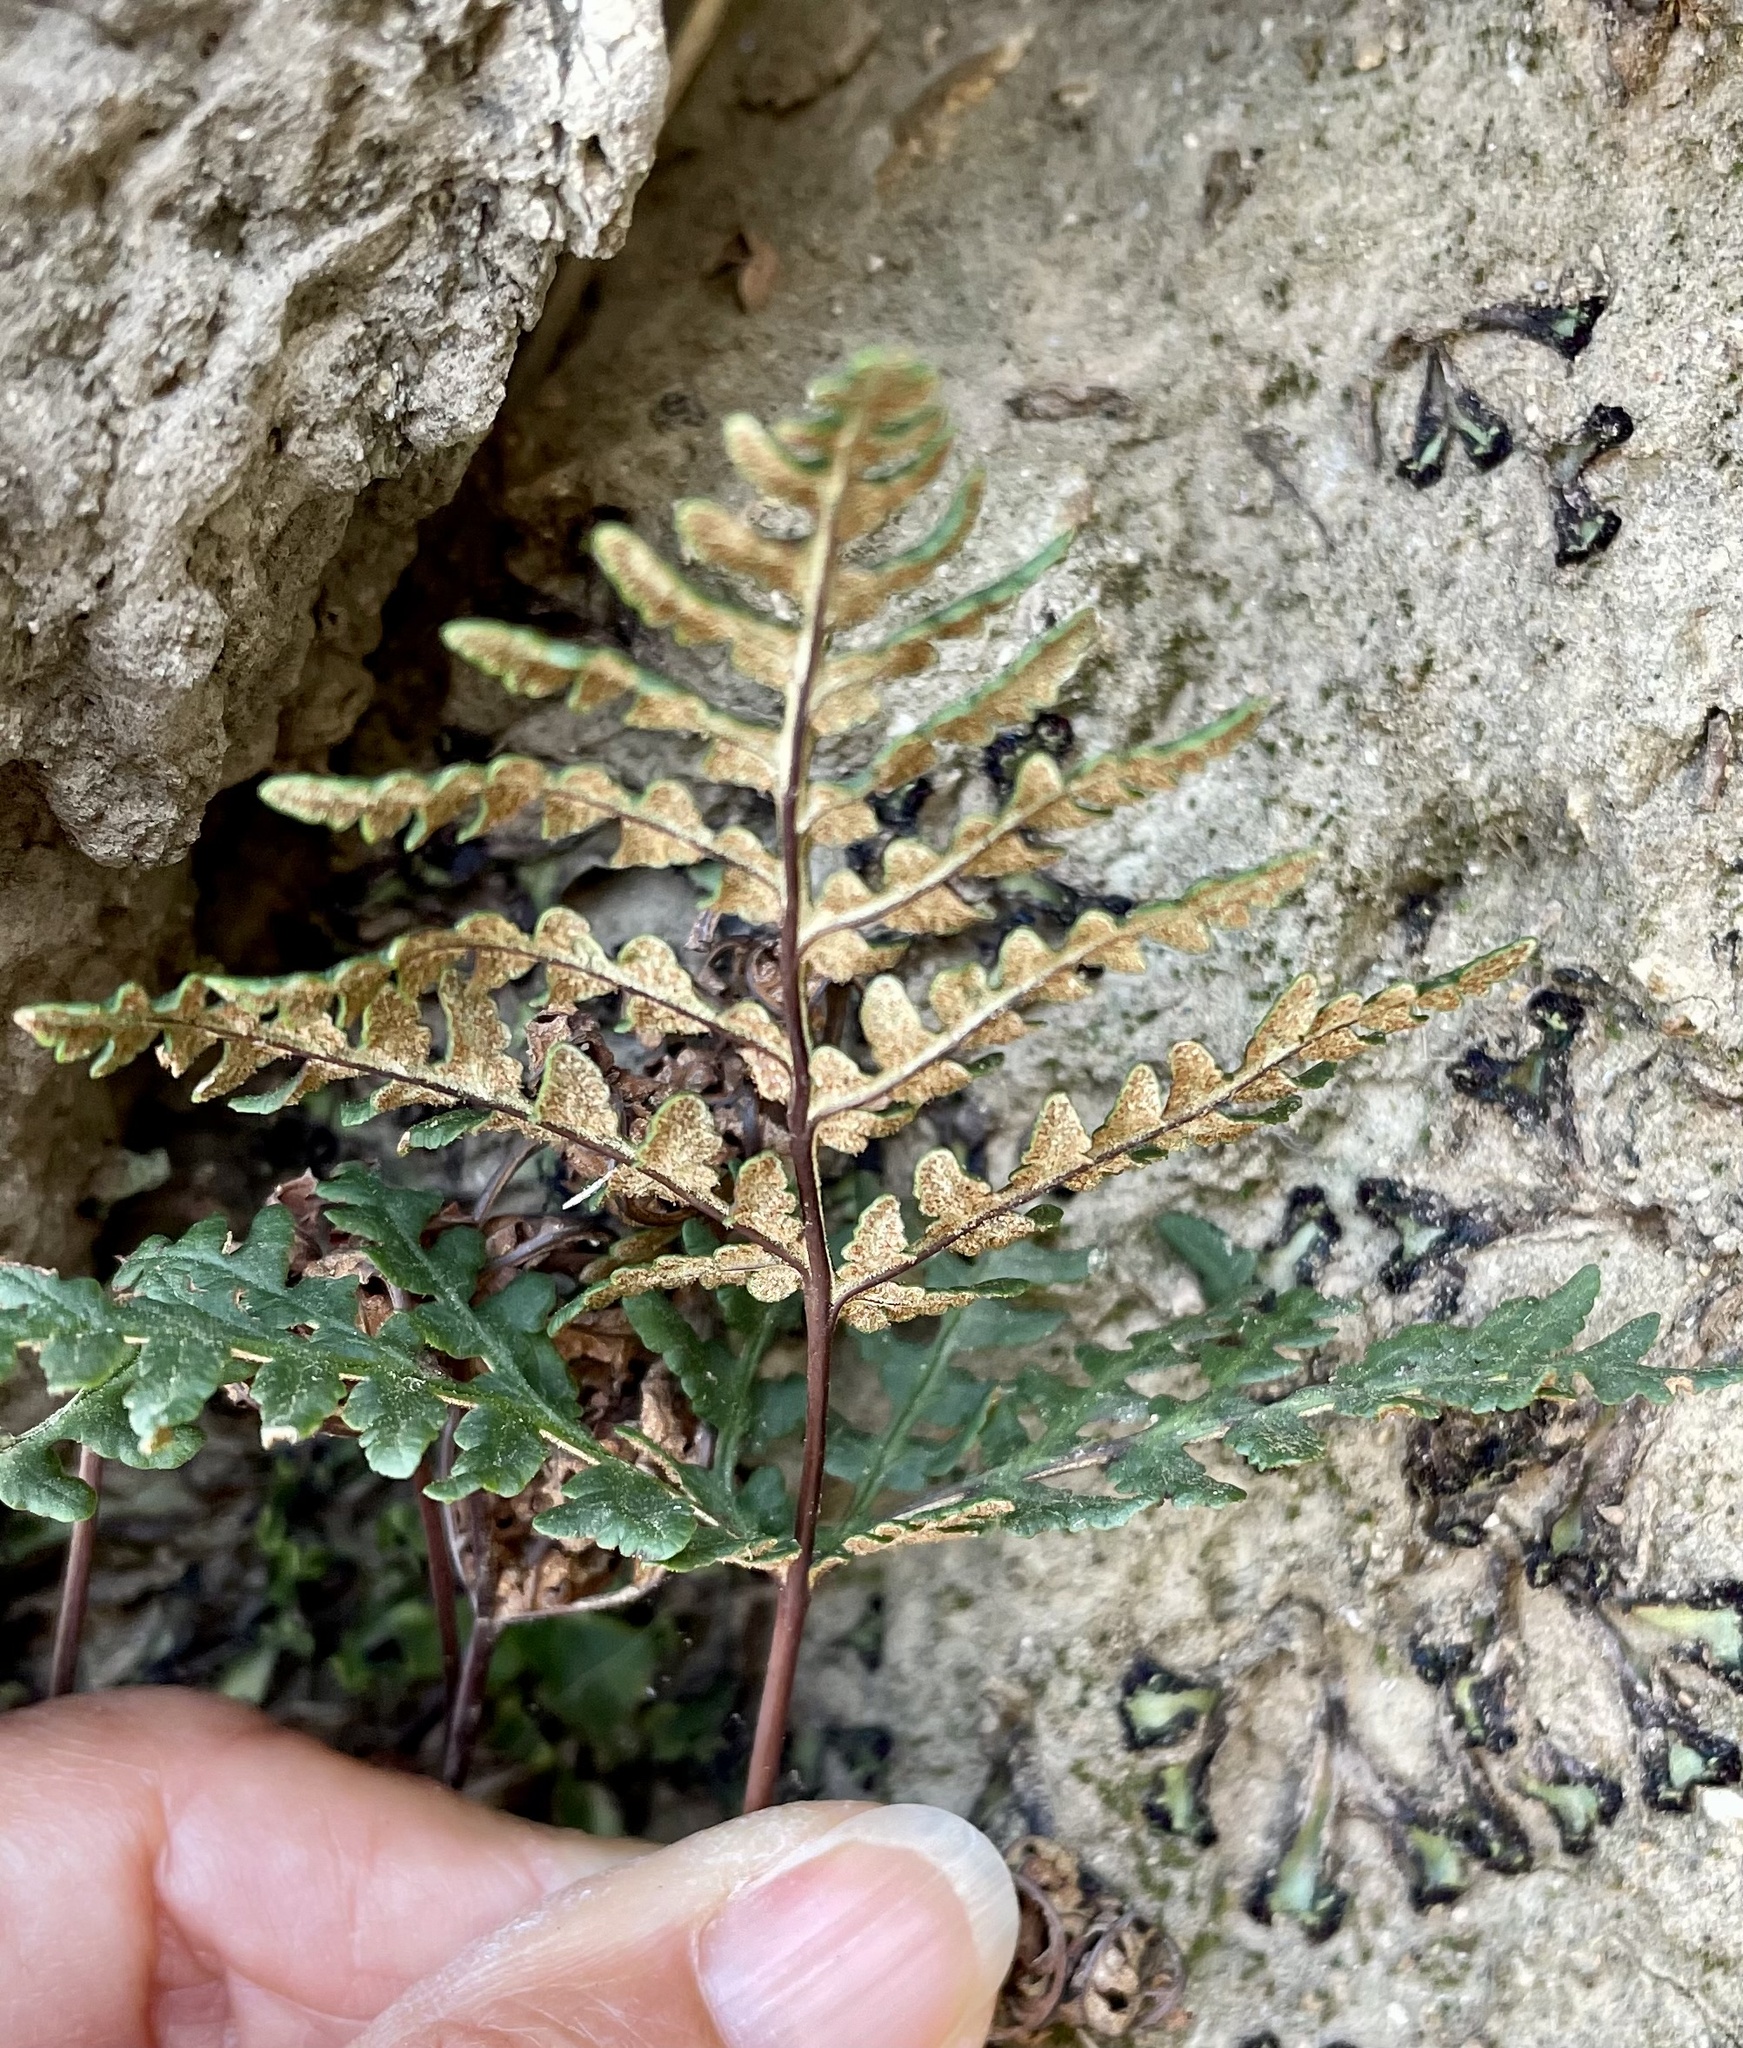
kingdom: Plantae
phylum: Tracheophyta
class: Polypodiopsida
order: Polypodiales
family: Pteridaceae
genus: Pentagramma
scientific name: Pentagramma triangularis
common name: Gold fern
